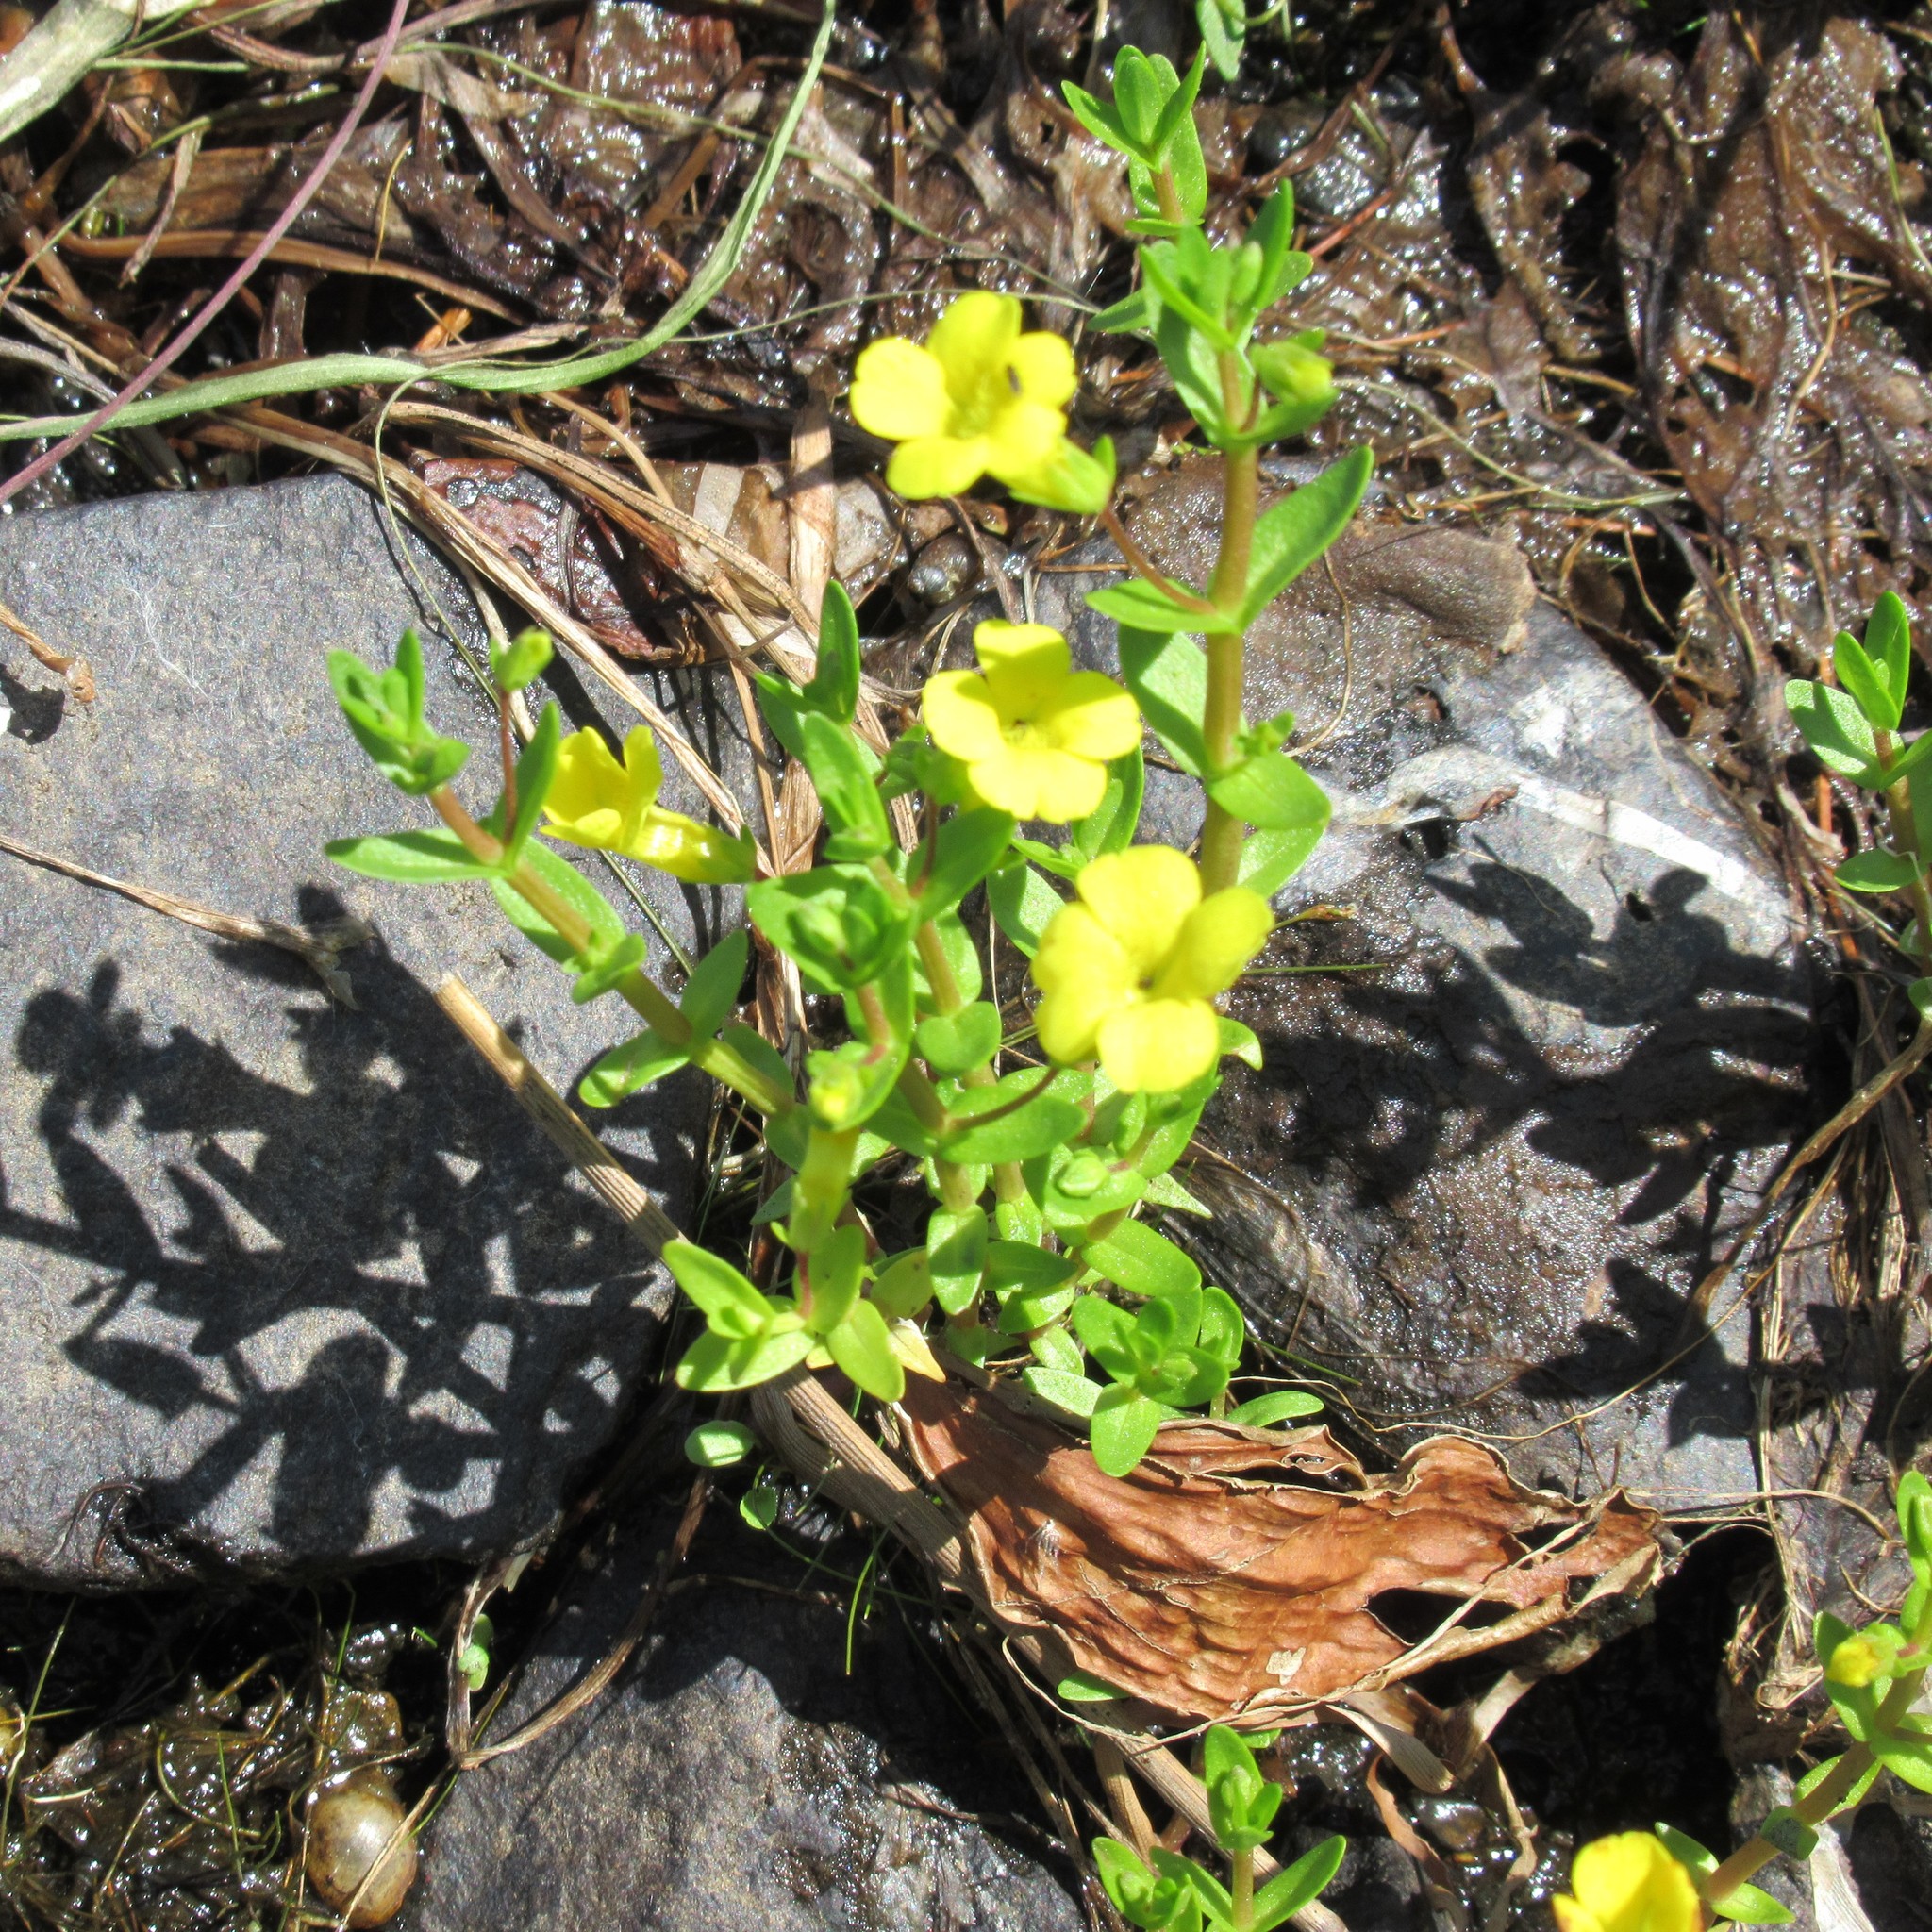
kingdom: Plantae
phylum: Tracheophyta
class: Magnoliopsida
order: Lamiales
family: Plantaginaceae
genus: Gratiola
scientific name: Gratiola lutea
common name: Golden hedge-hyssop
